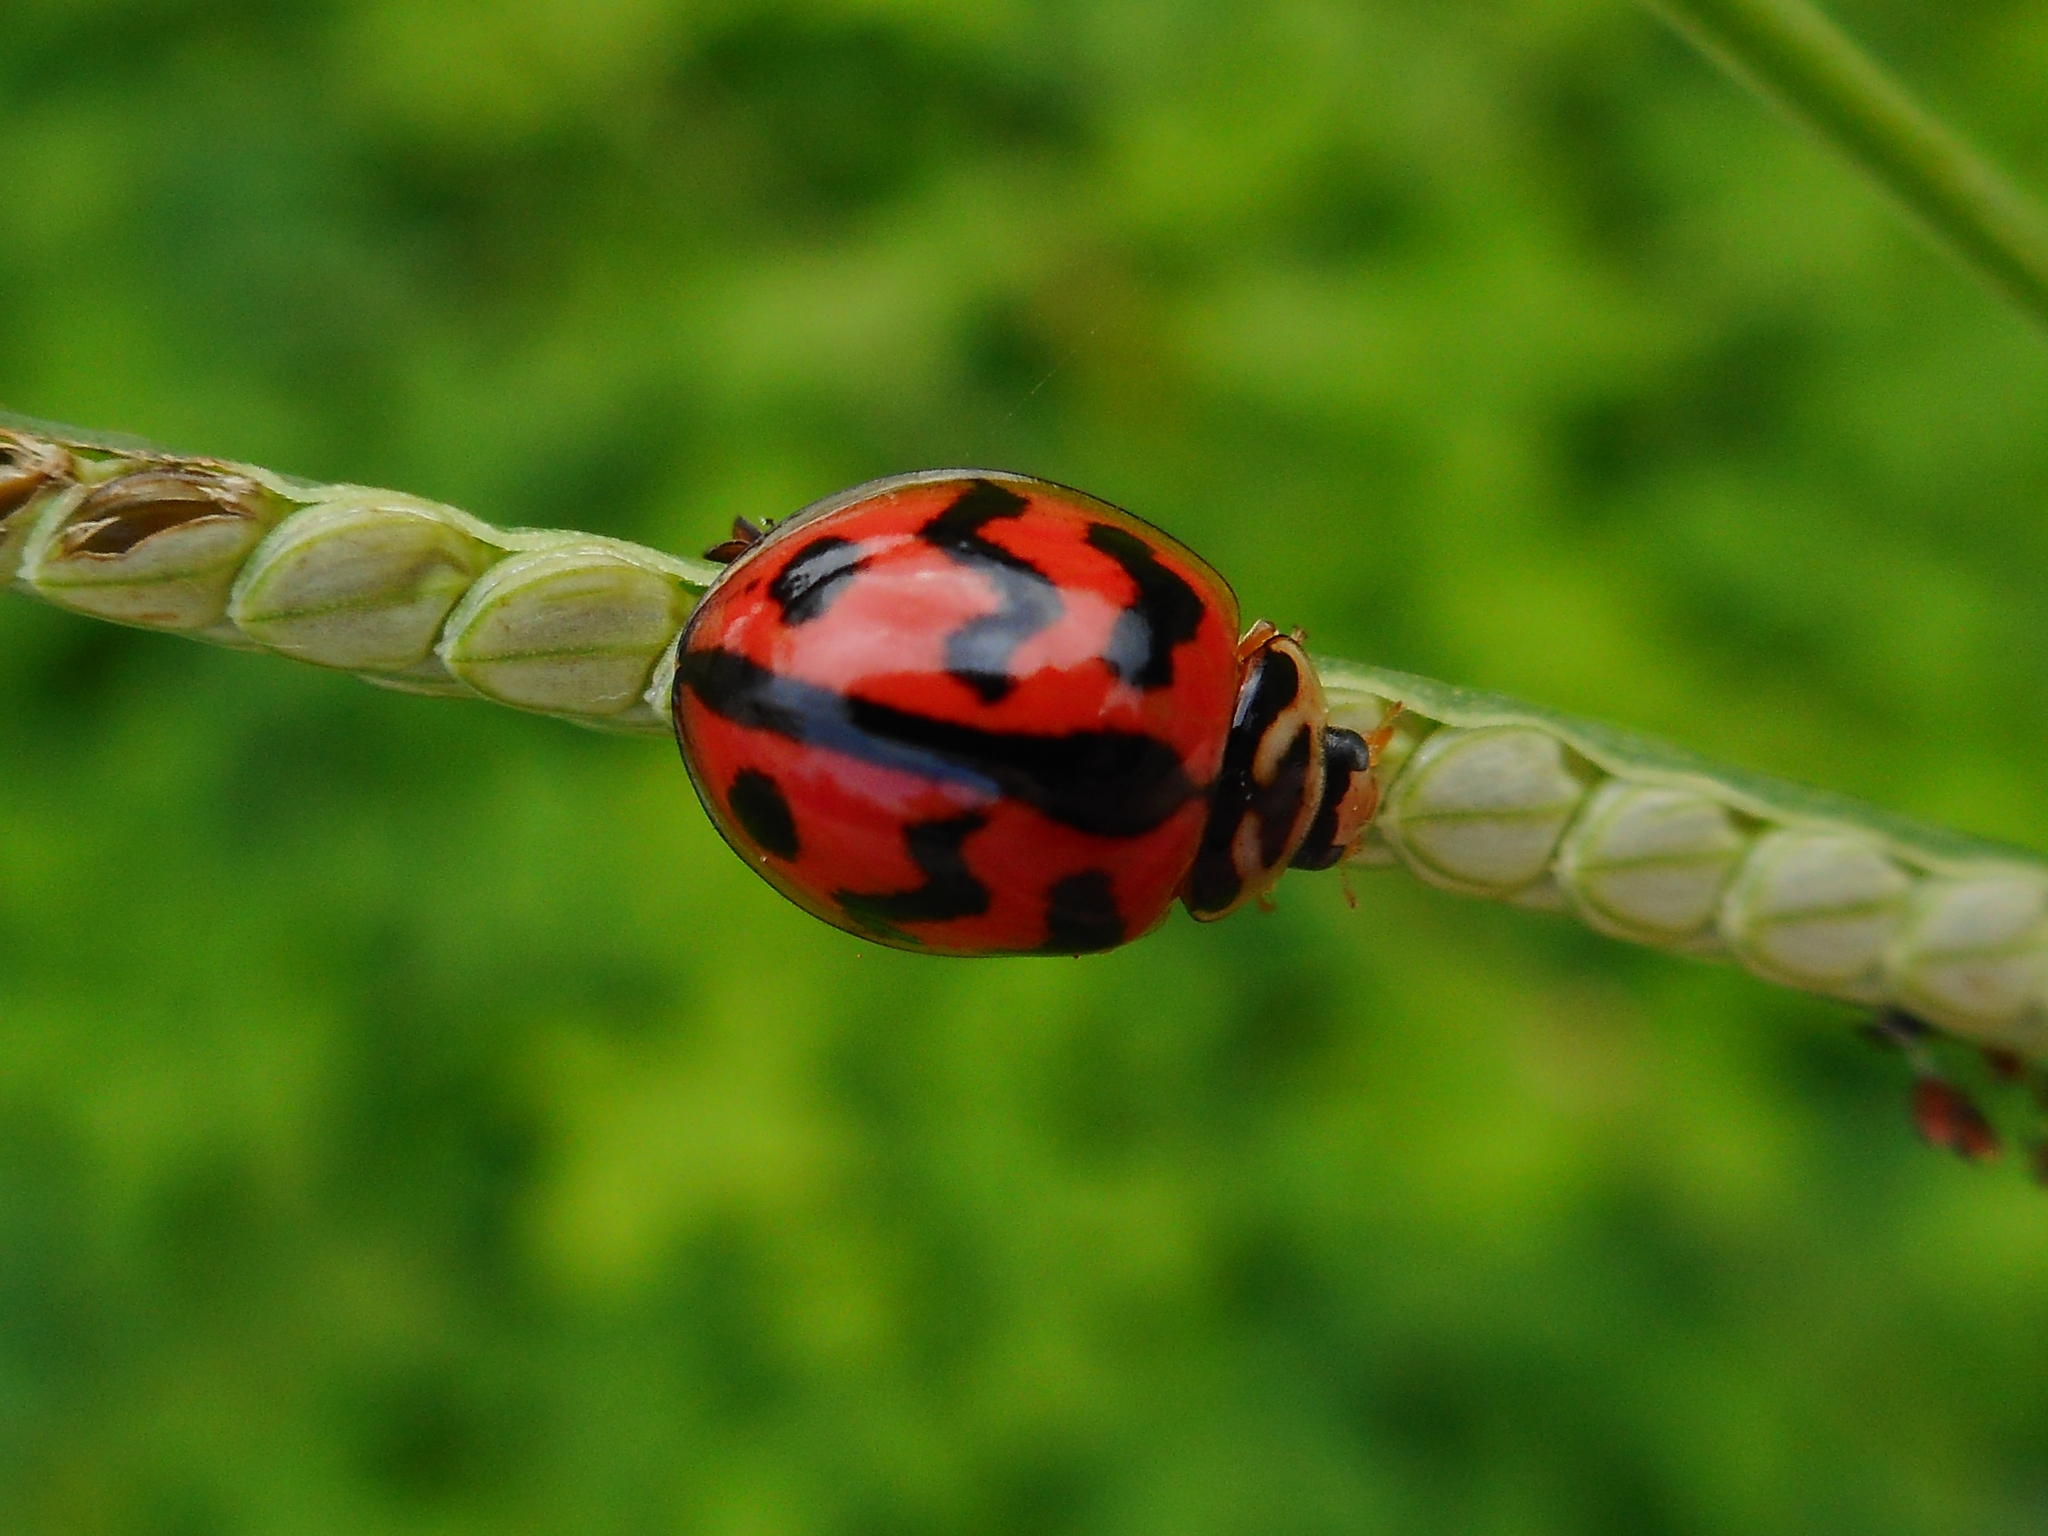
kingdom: Animalia
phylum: Arthropoda
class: Insecta
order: Coleoptera
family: Coccinellidae
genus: Cheilomenes
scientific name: Cheilomenes sexmaculata
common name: Ladybird beetle
